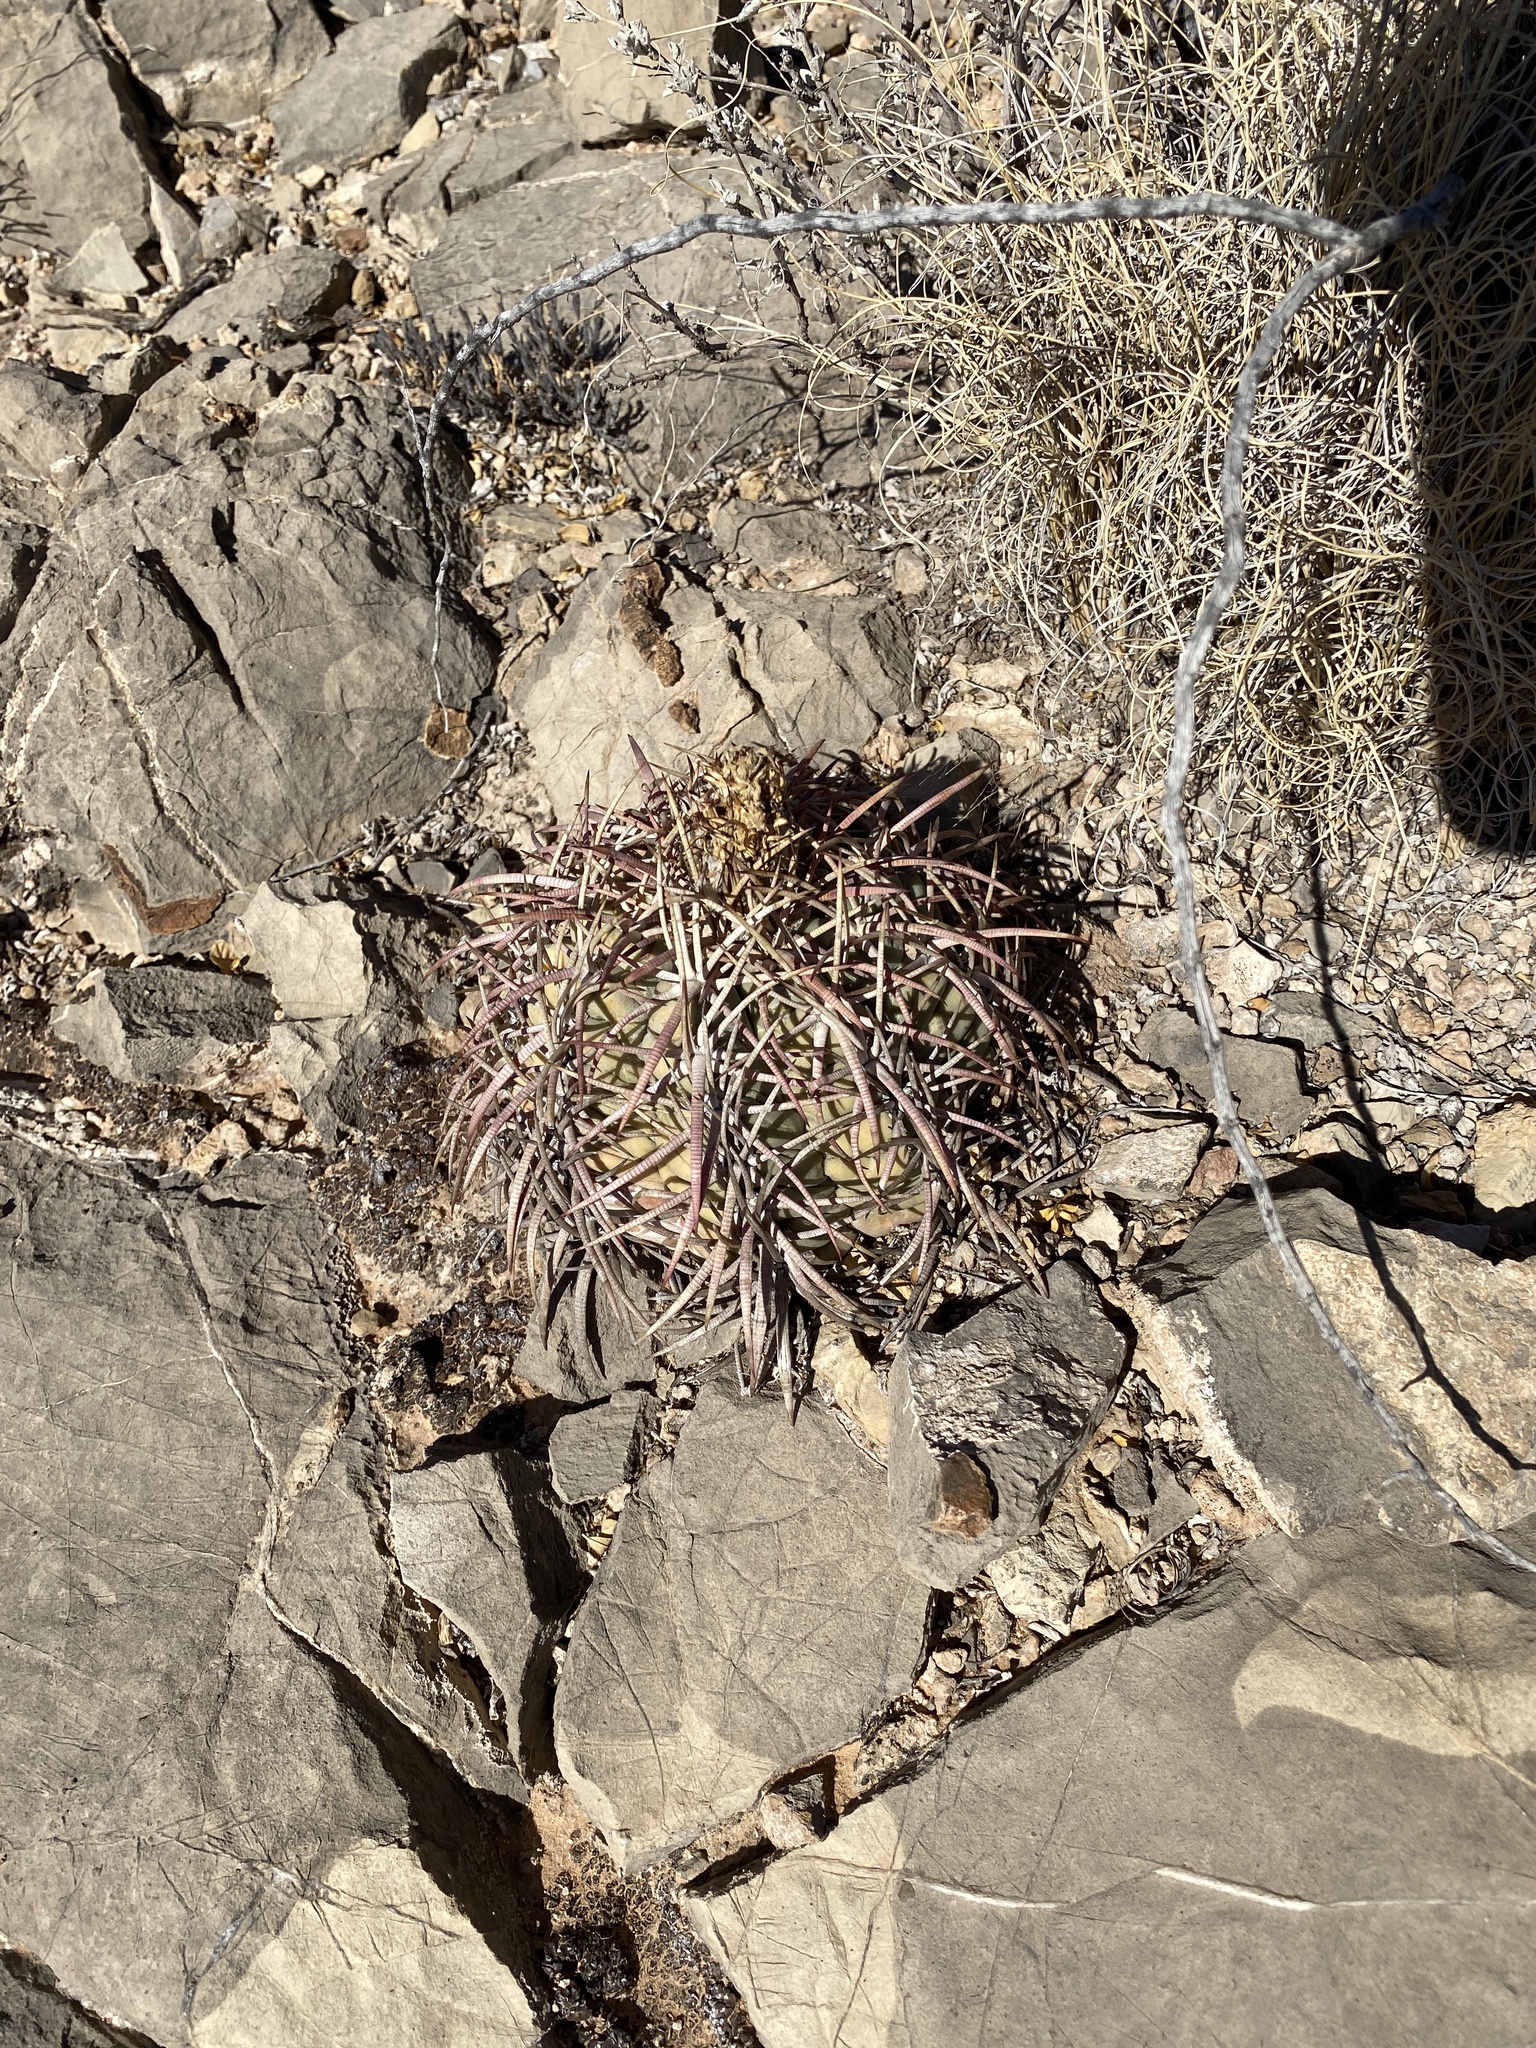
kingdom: Plantae
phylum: Tracheophyta
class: Magnoliopsida
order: Caryophyllales
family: Cactaceae
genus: Echinocactus
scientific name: Echinocactus horizonthalonius
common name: Devilshead
